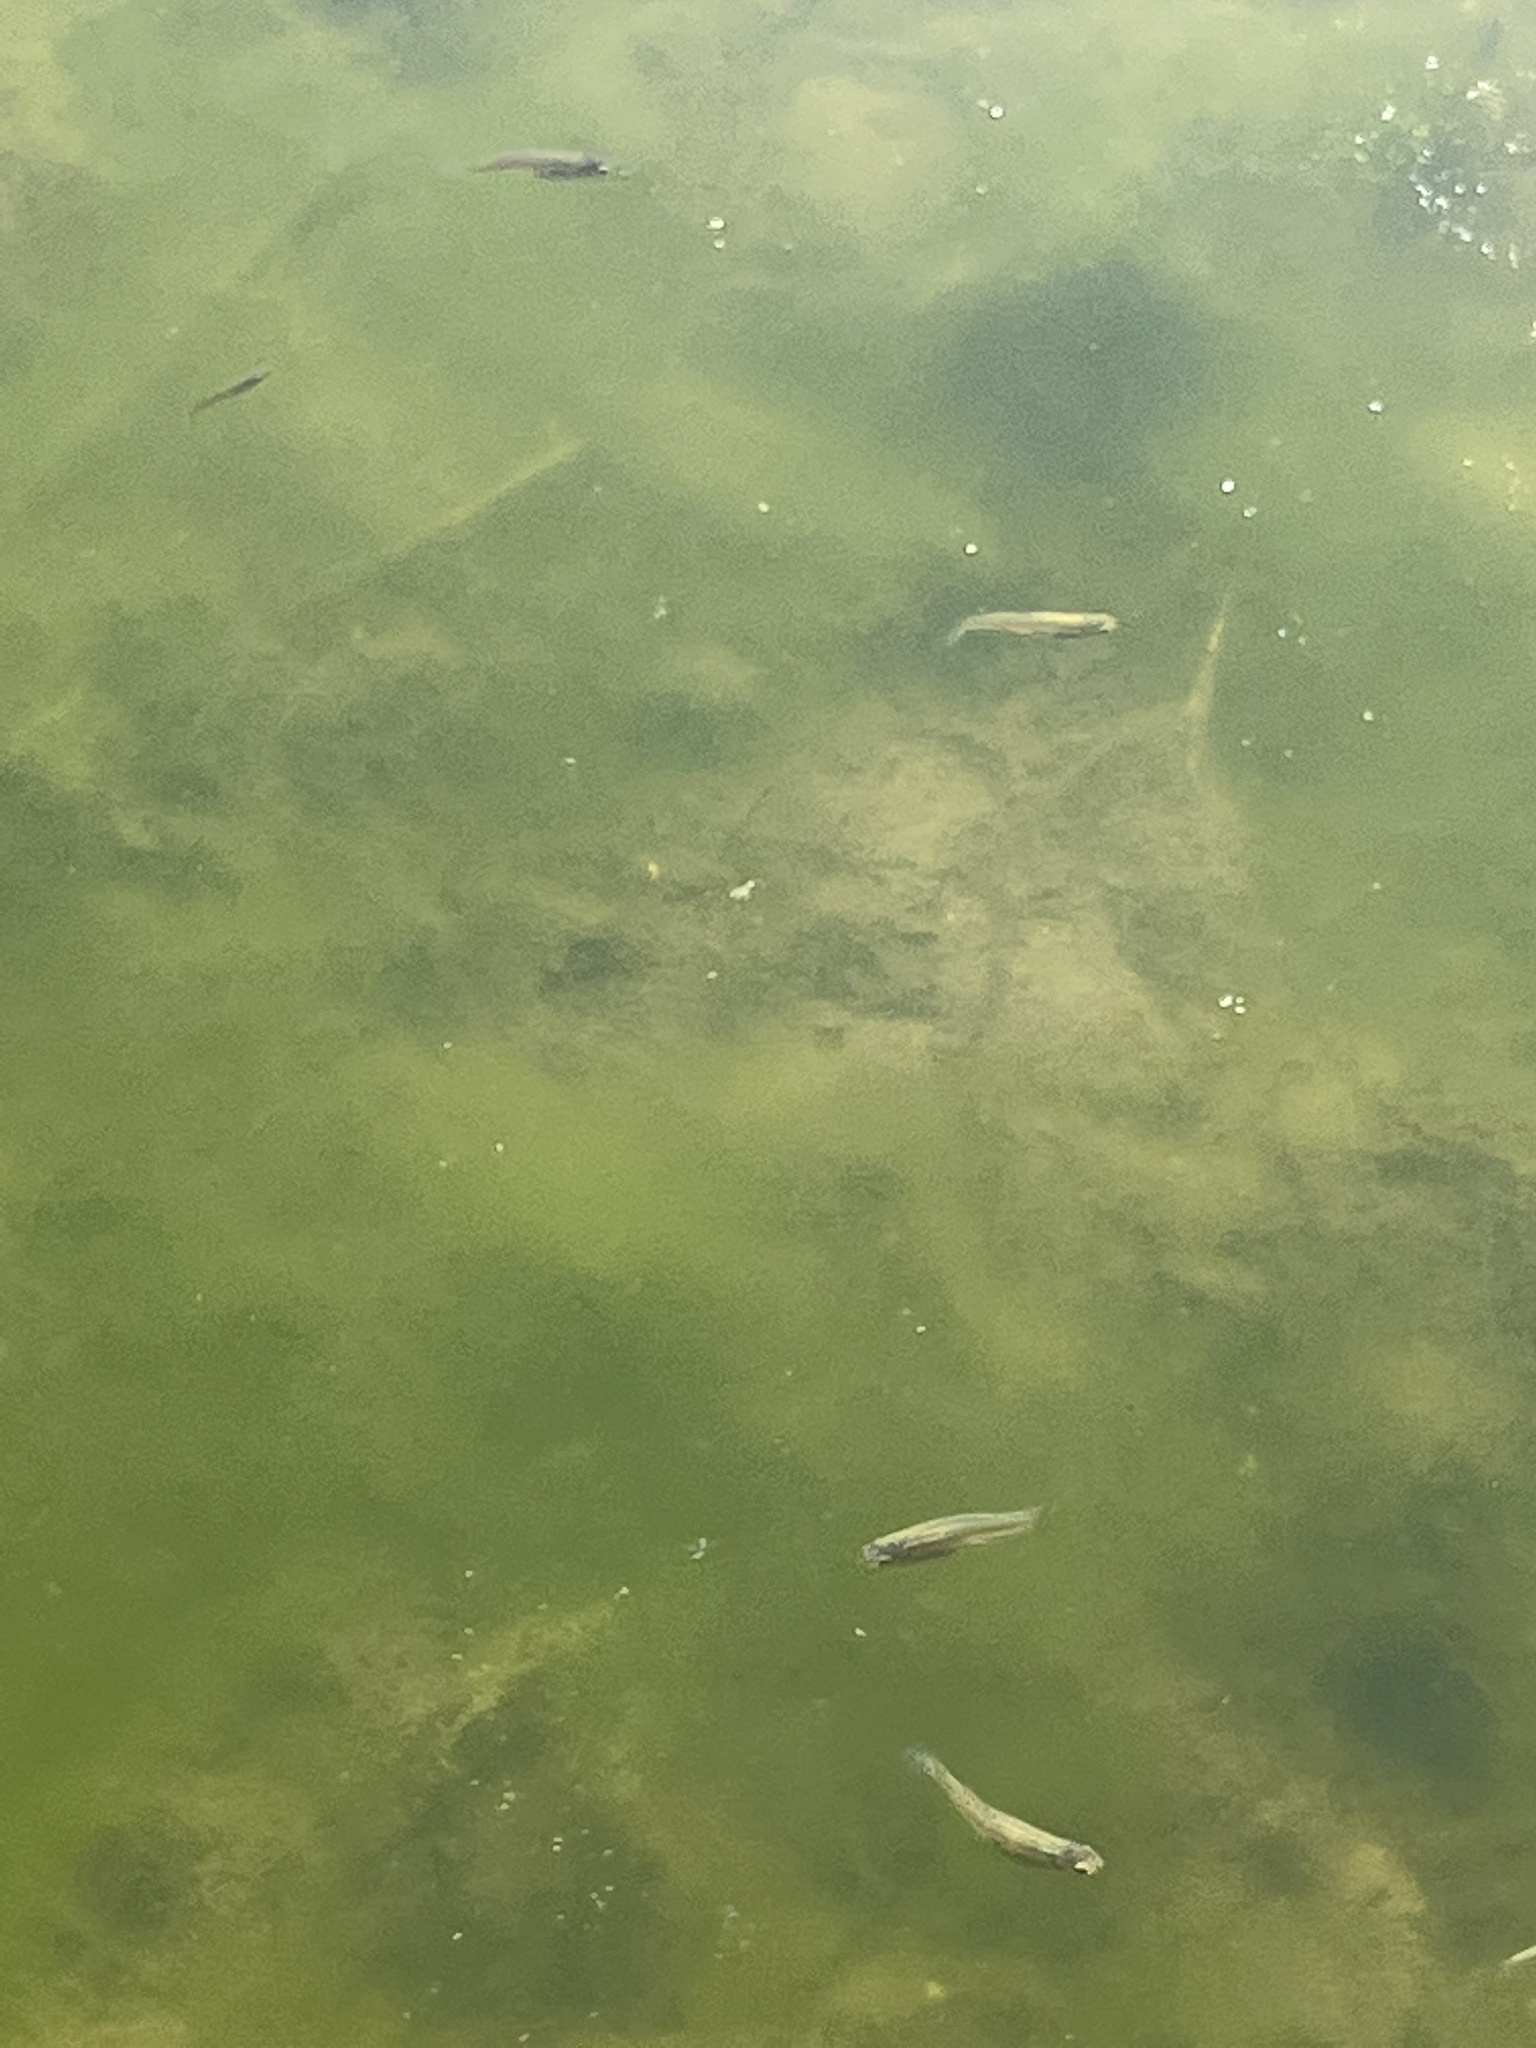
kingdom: Animalia
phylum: Chordata
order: Cyprinodontiformes
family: Poeciliidae
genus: Gambusia
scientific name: Gambusia affinis
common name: Mosquitofish
